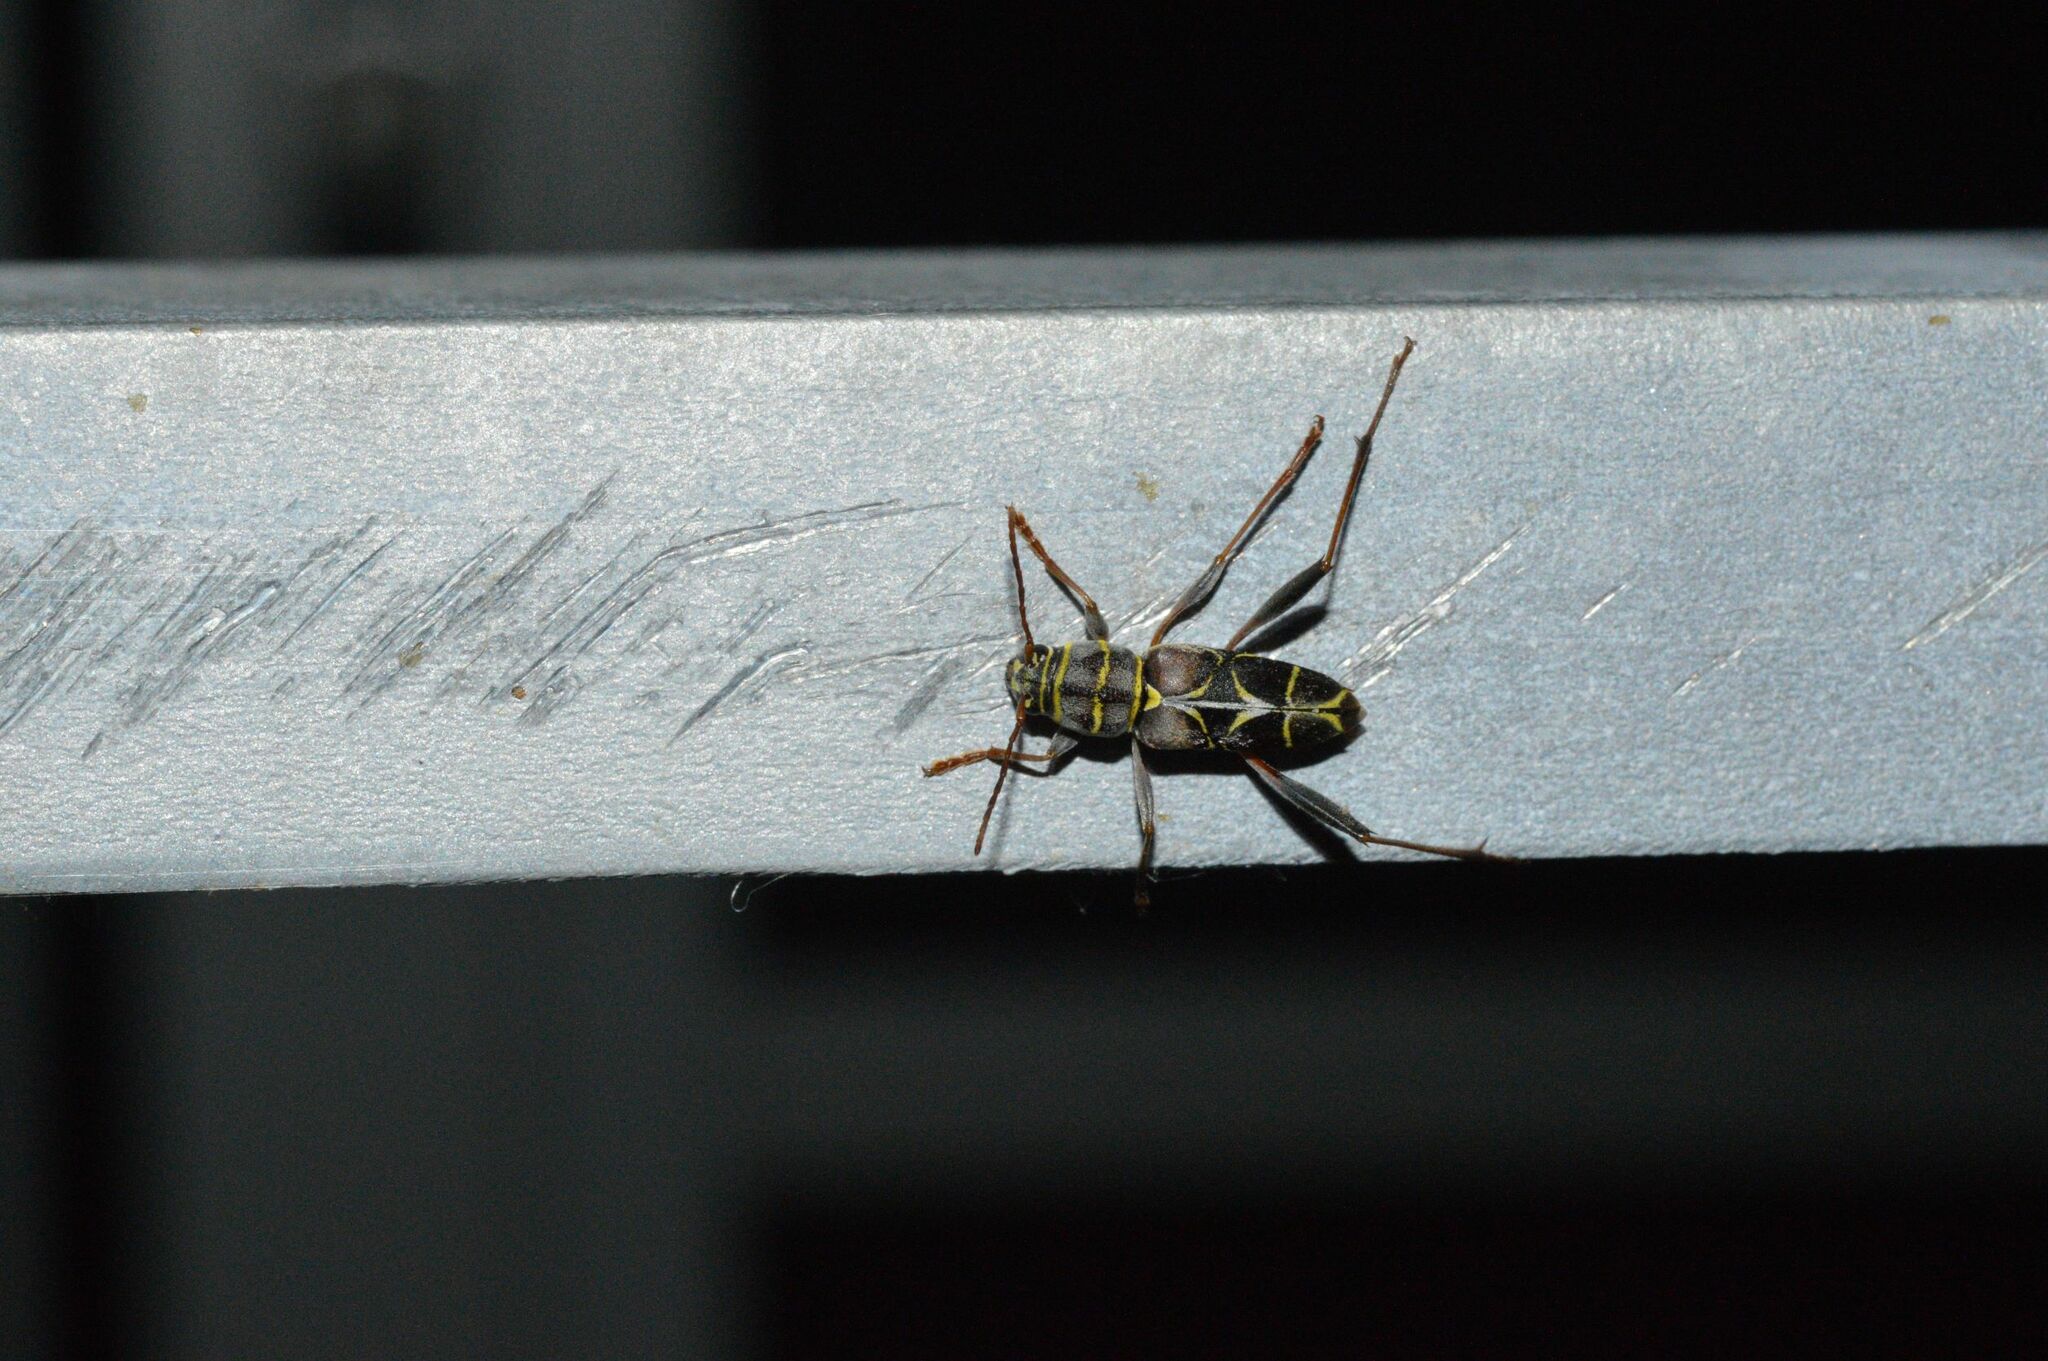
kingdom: Animalia
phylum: Arthropoda
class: Insecta
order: Coleoptera
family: Cerambycidae
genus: Neoclytus
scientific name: Neoclytus scutellaris
